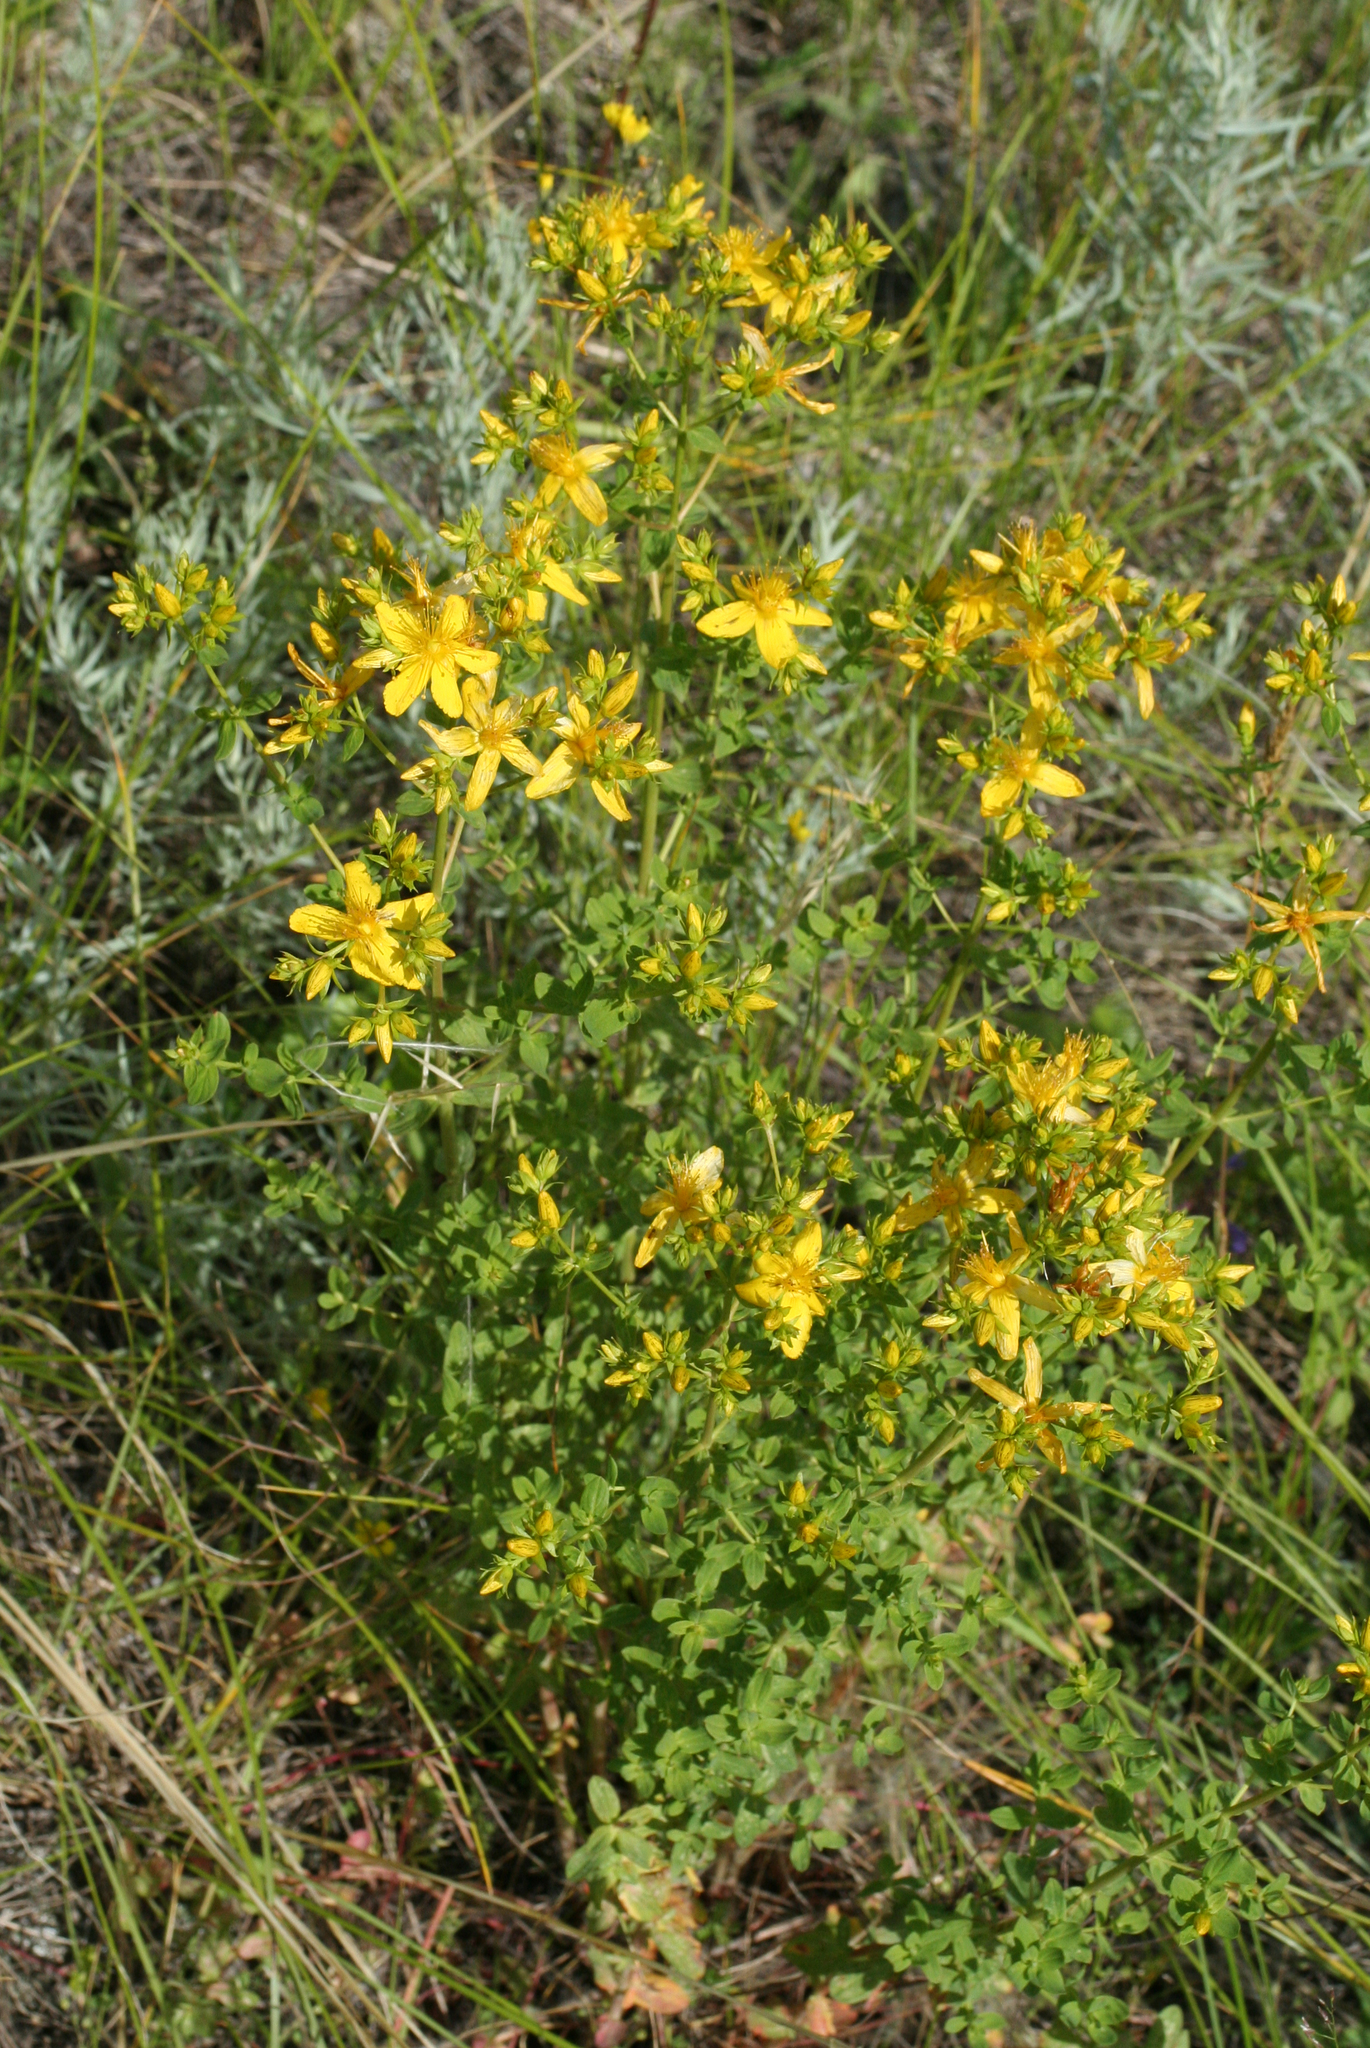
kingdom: Plantae
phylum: Tracheophyta
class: Magnoliopsida
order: Malpighiales
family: Hypericaceae
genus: Hypericum
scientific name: Hypericum perforatum
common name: Common st. johnswort
